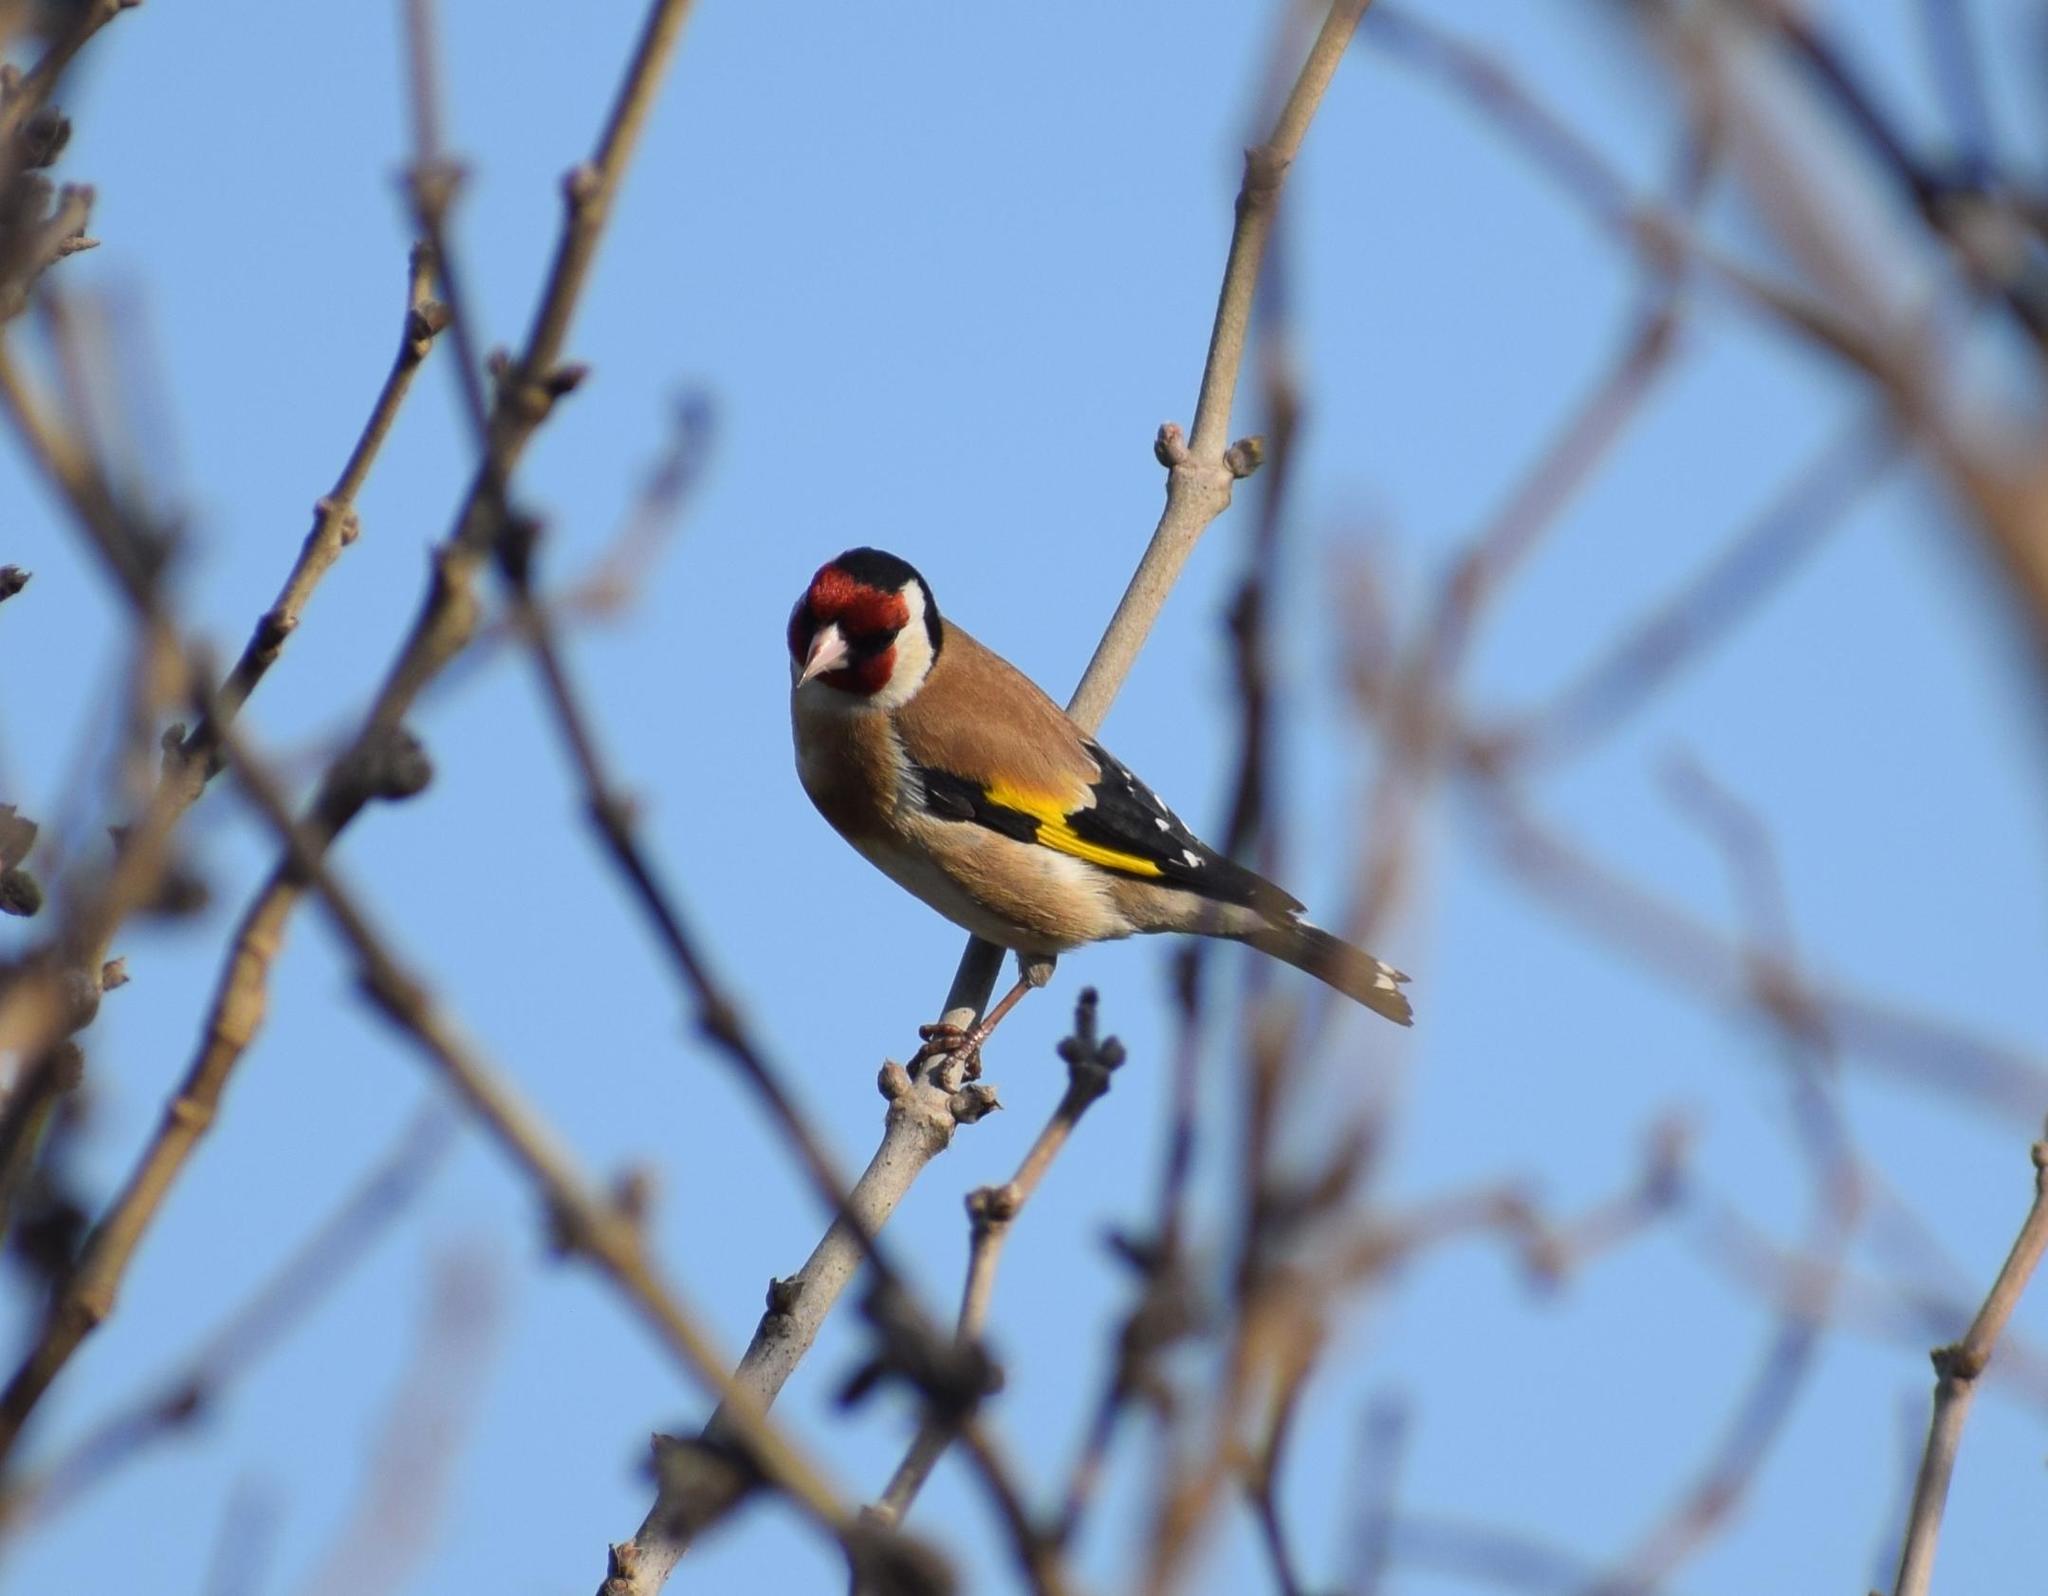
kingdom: Animalia
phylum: Chordata
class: Aves
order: Passeriformes
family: Fringillidae
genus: Carduelis
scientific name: Carduelis carduelis
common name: European goldfinch
